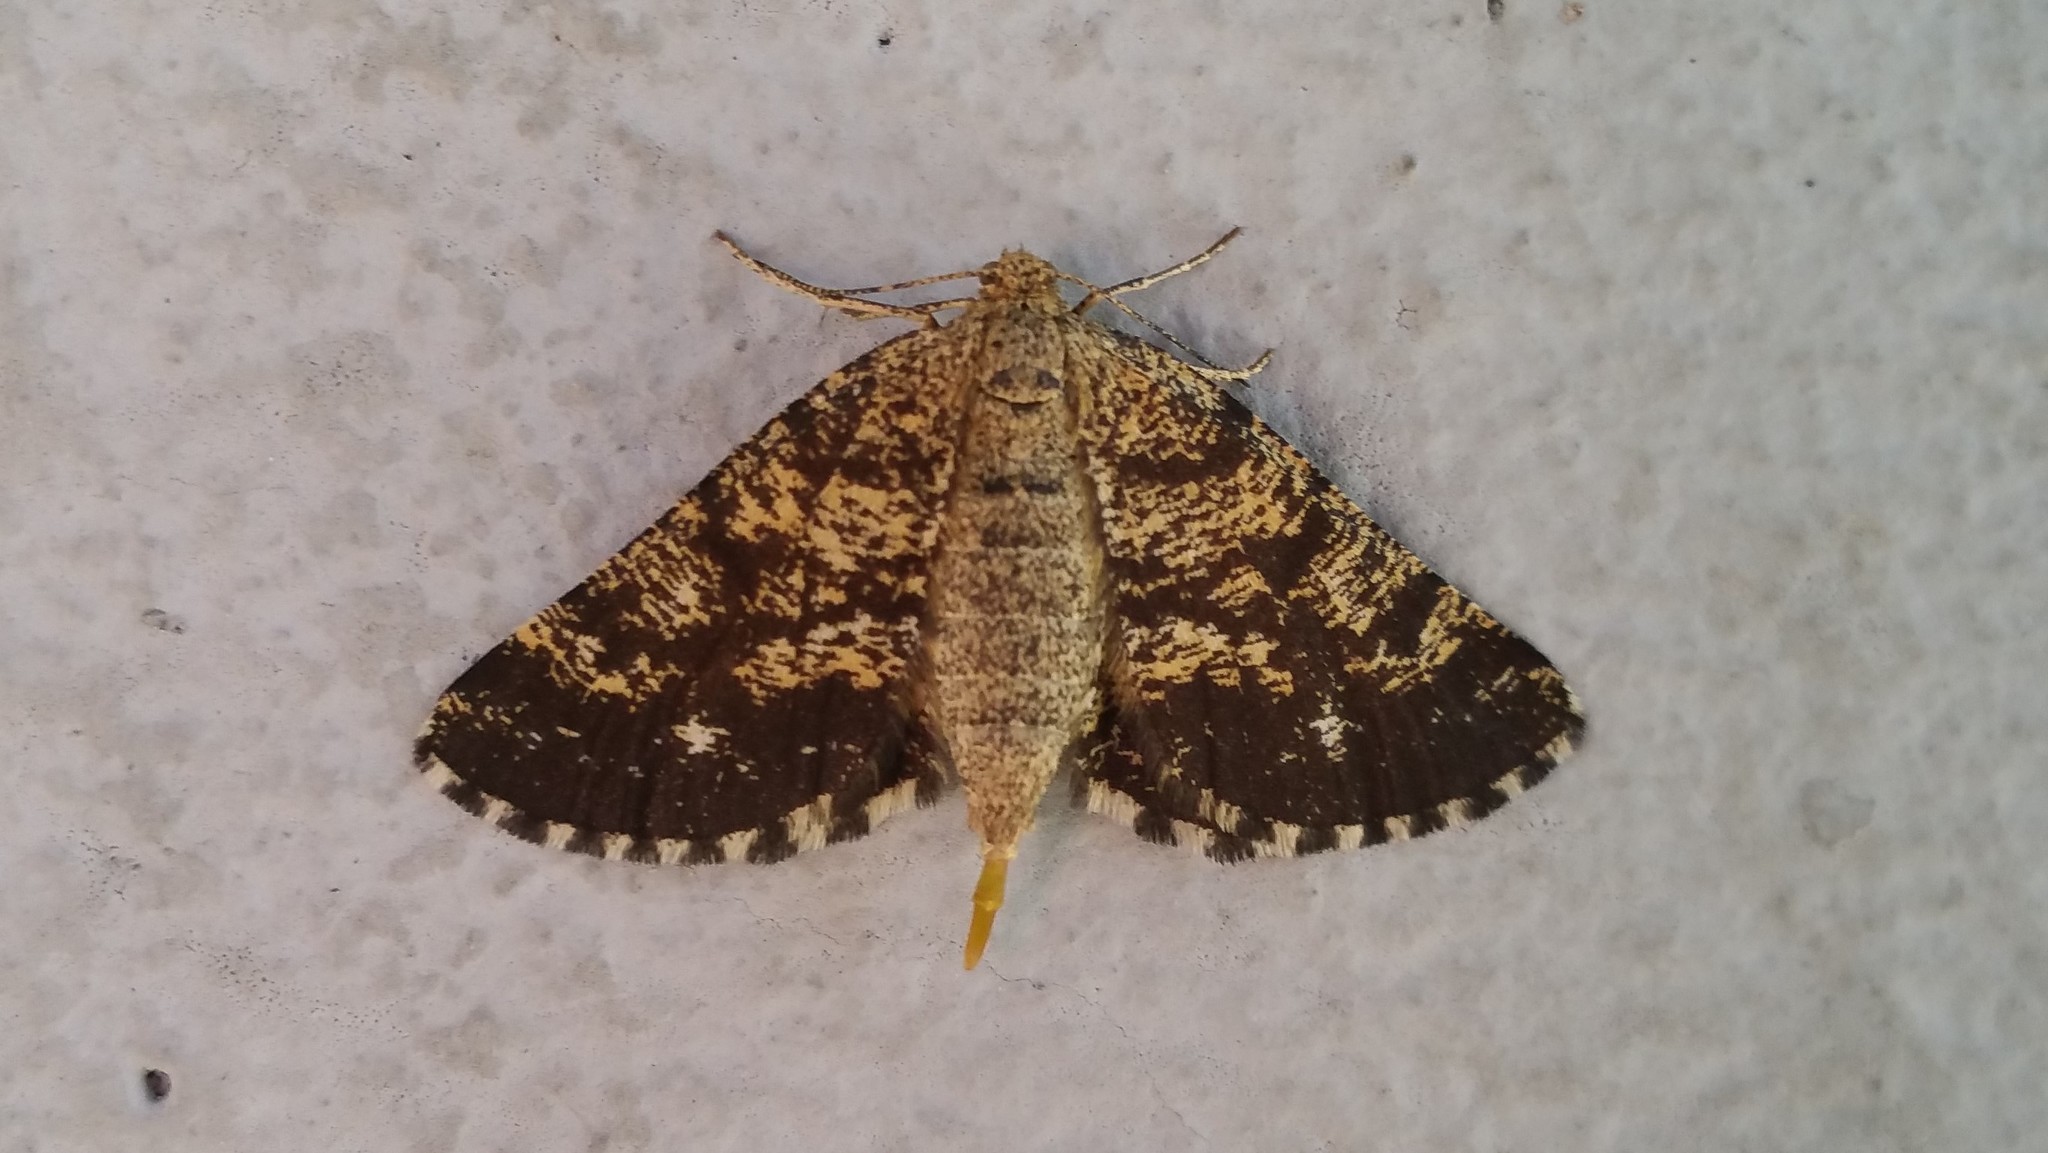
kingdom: Animalia
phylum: Arthropoda
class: Insecta
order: Lepidoptera
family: Geometridae
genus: Ematurga
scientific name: Ematurga atomaria
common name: Common heath
